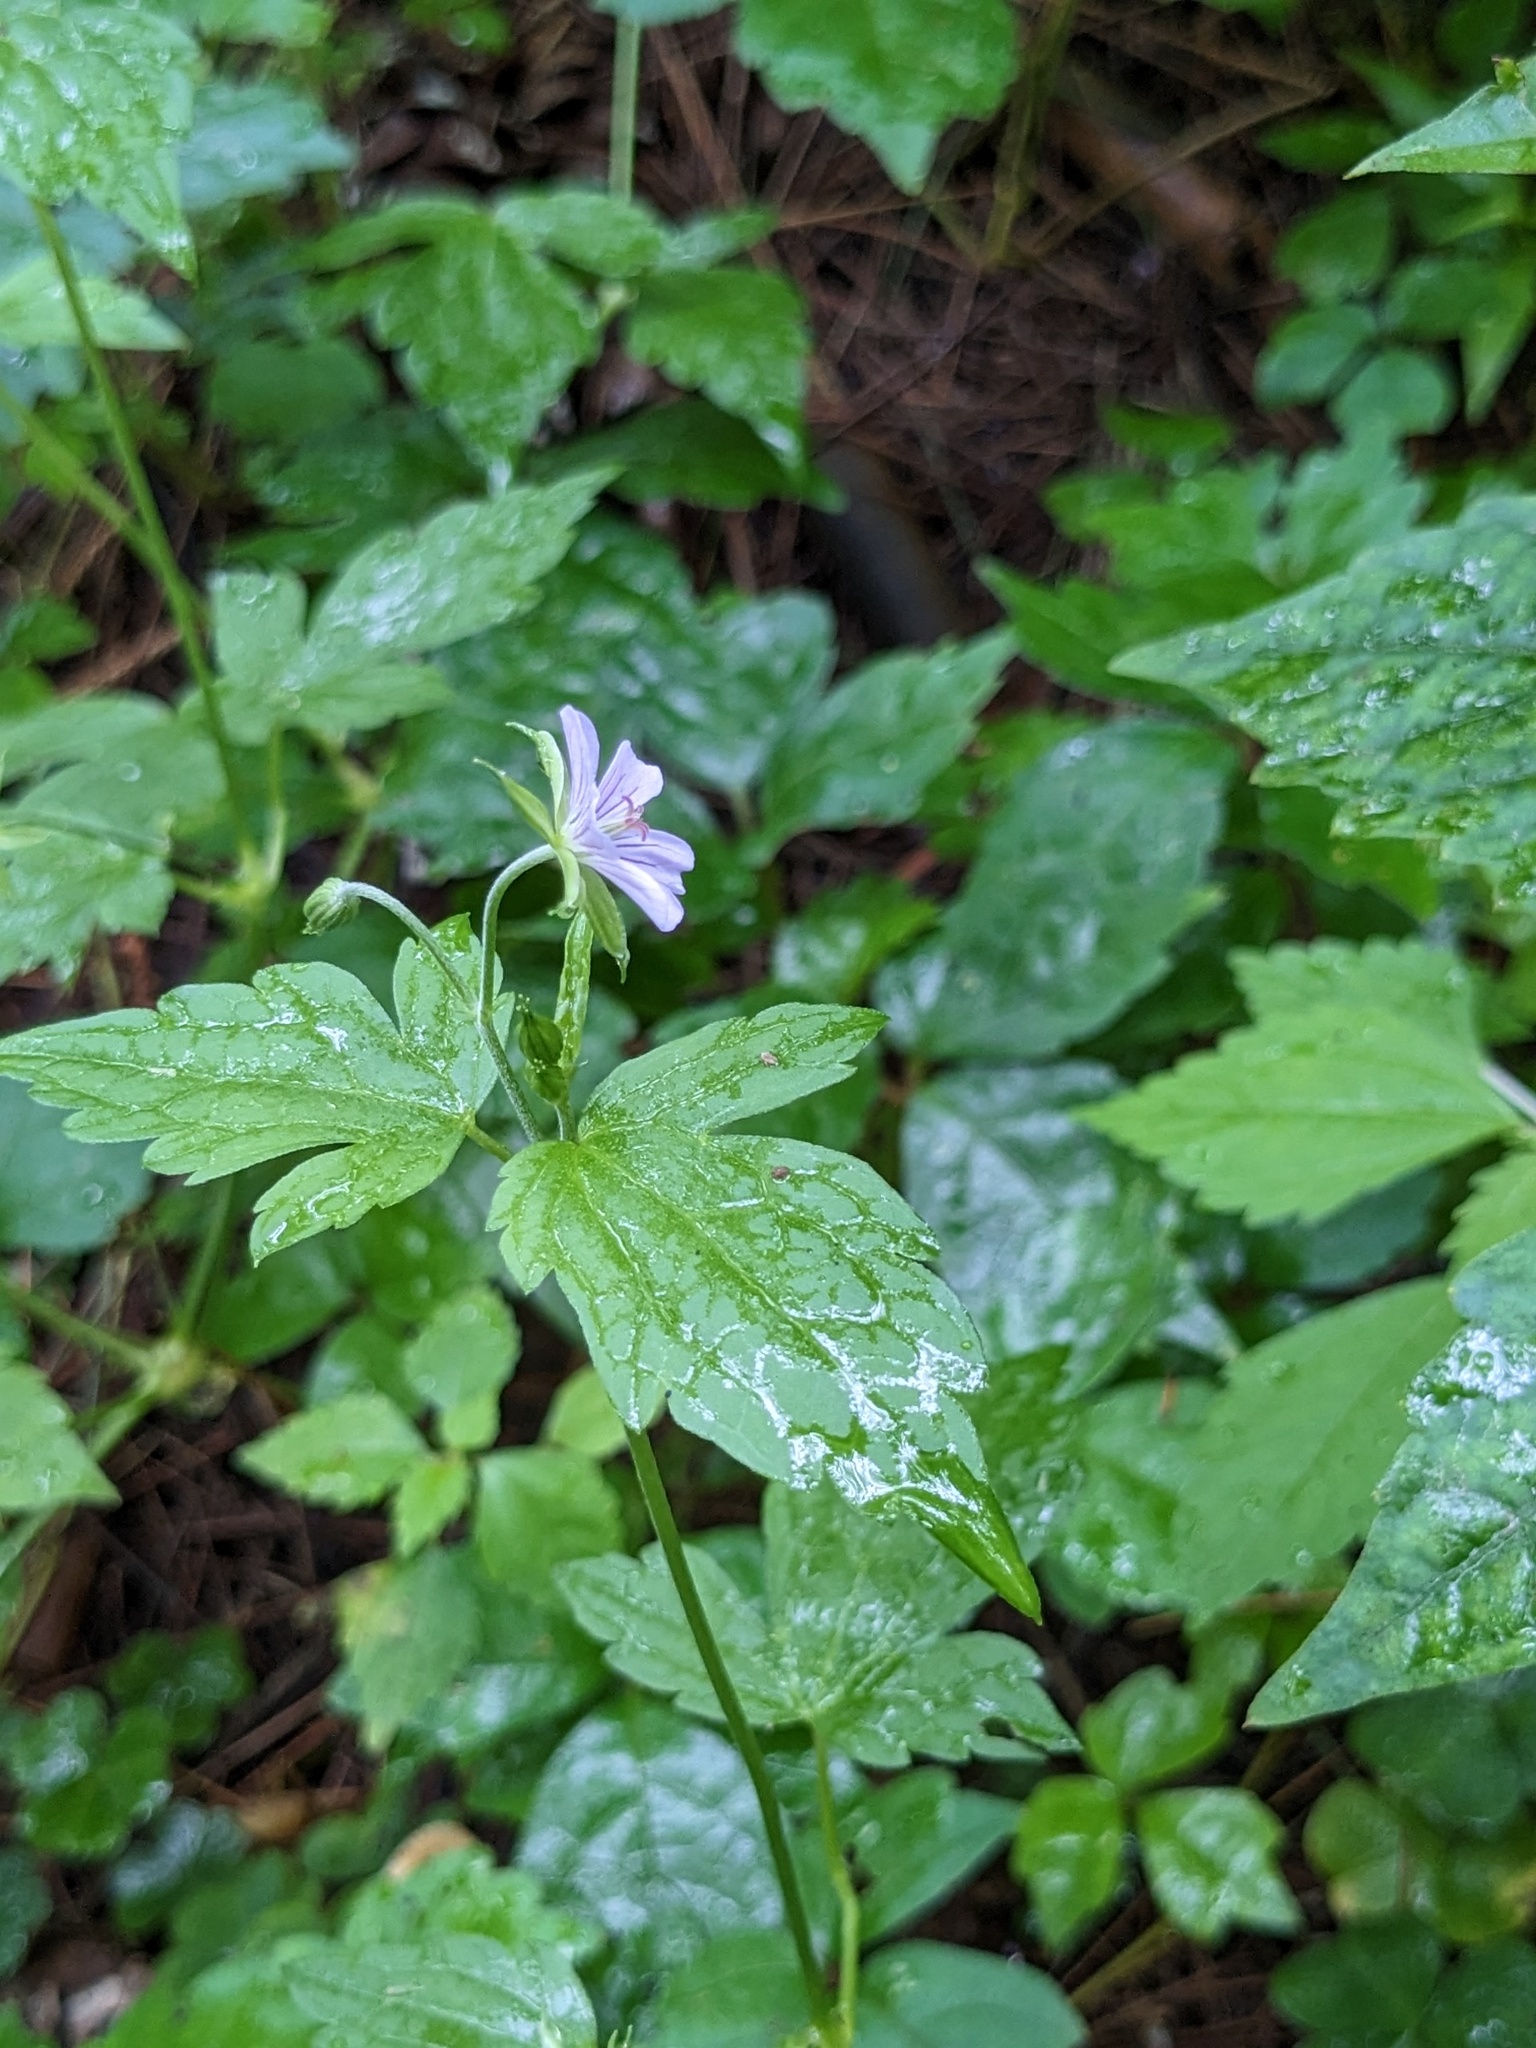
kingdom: Plantae
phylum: Tracheophyta
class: Magnoliopsida
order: Geraniales
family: Geraniaceae
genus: Geranium
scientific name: Geranium wilfordii
